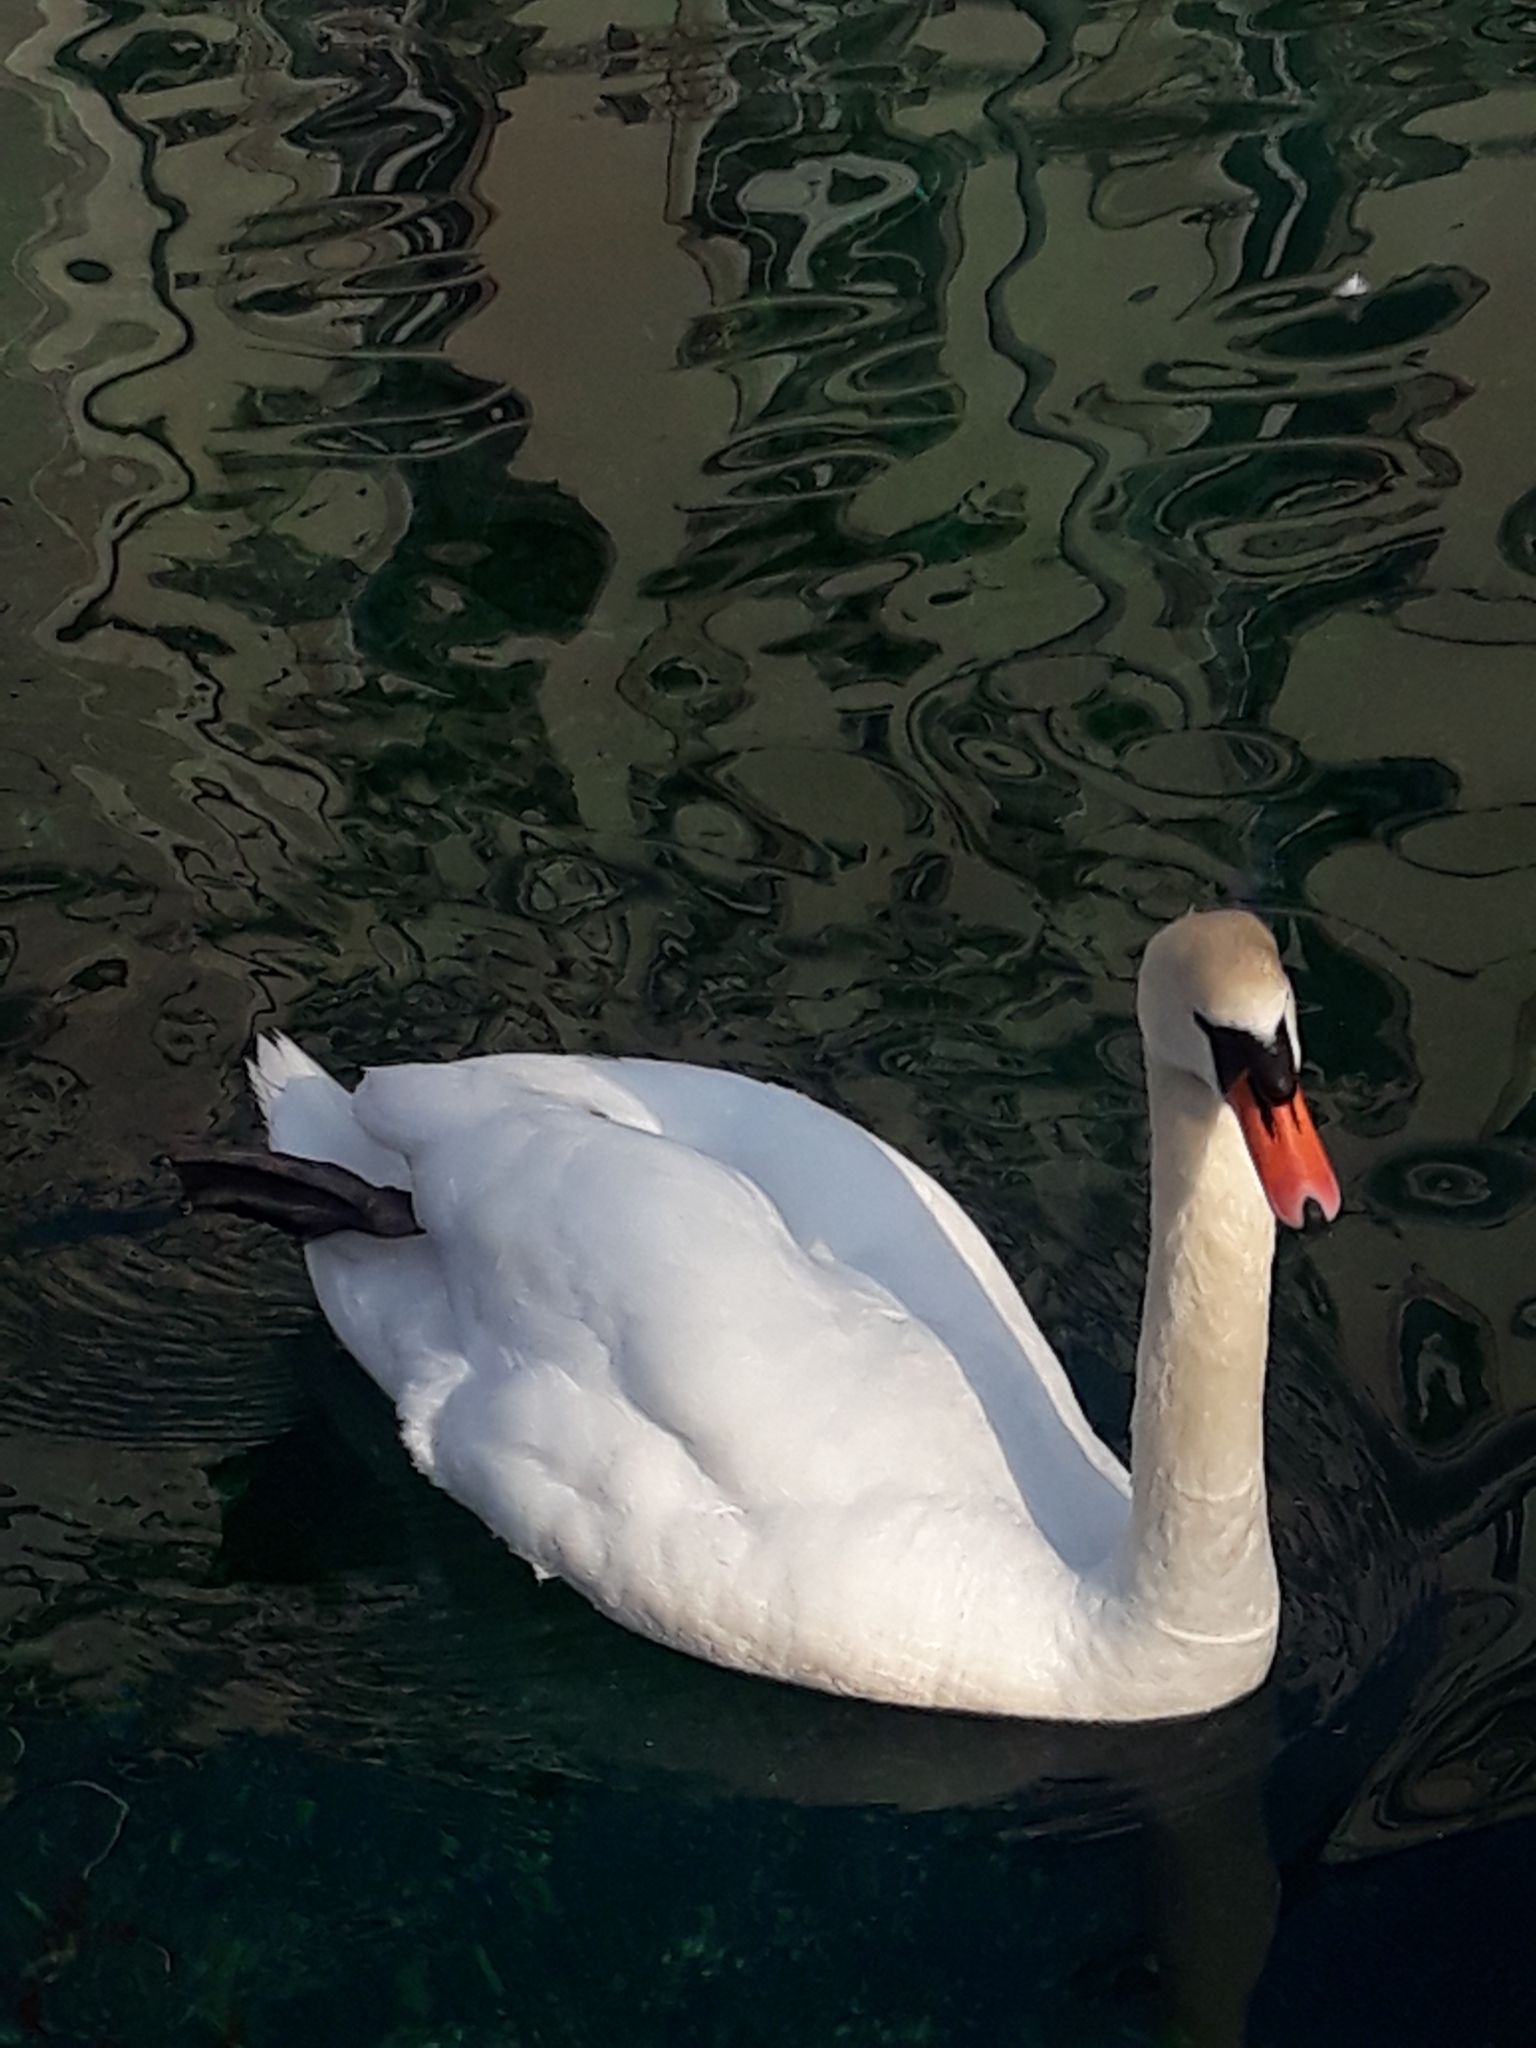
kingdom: Animalia
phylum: Chordata
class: Aves
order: Anseriformes
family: Anatidae
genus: Cygnus
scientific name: Cygnus olor
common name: Mute swan
